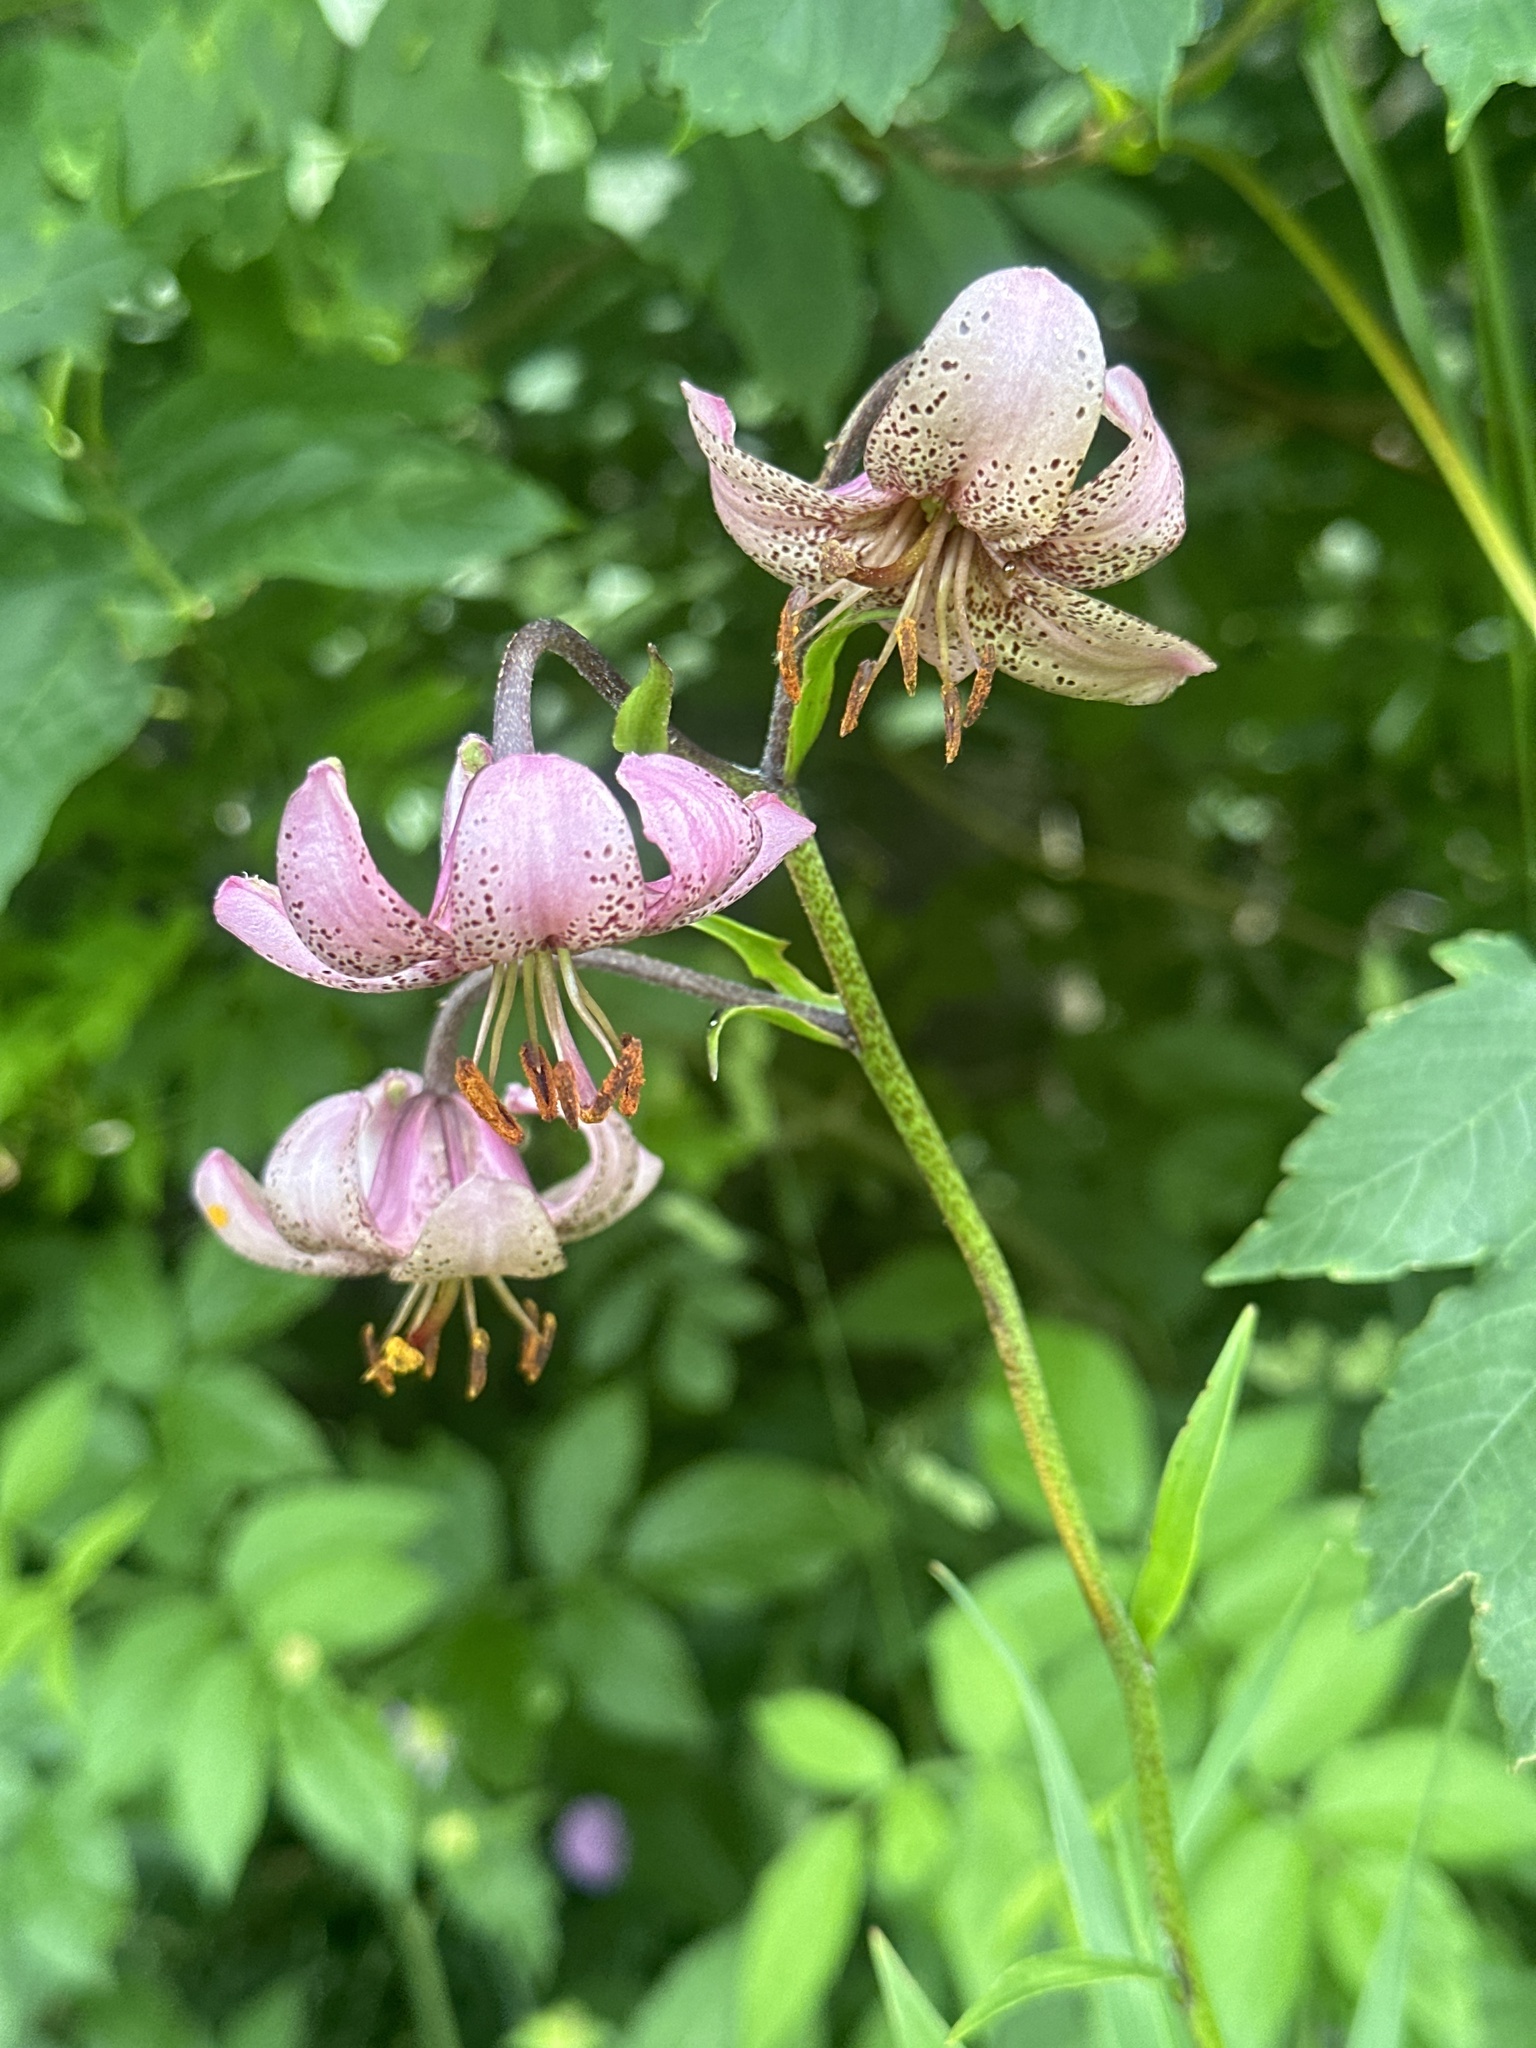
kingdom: Plantae
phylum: Tracheophyta
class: Liliopsida
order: Liliales
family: Liliaceae
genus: Lilium
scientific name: Lilium martagon
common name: Martagon lily
